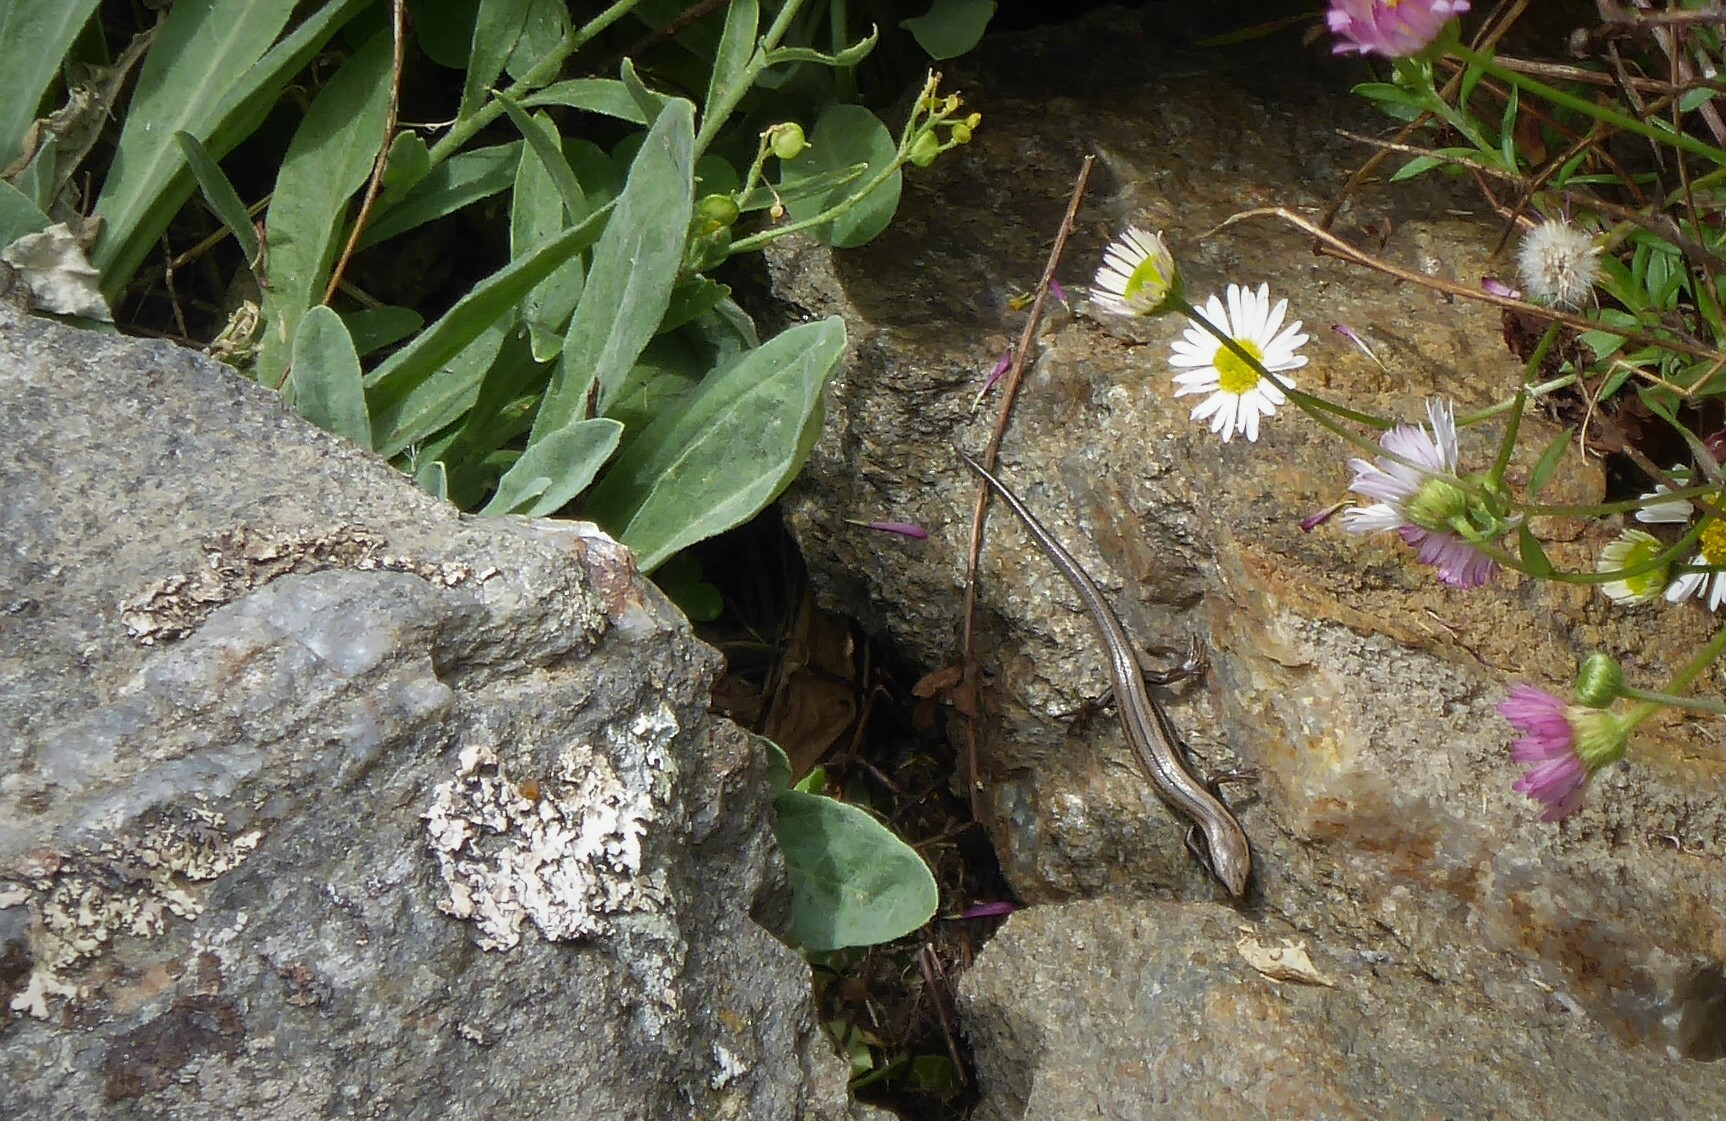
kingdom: Animalia
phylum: Chordata
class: Squamata
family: Scincidae
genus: Oligosoma
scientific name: Oligosoma polychroma
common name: Common new zealand skink
